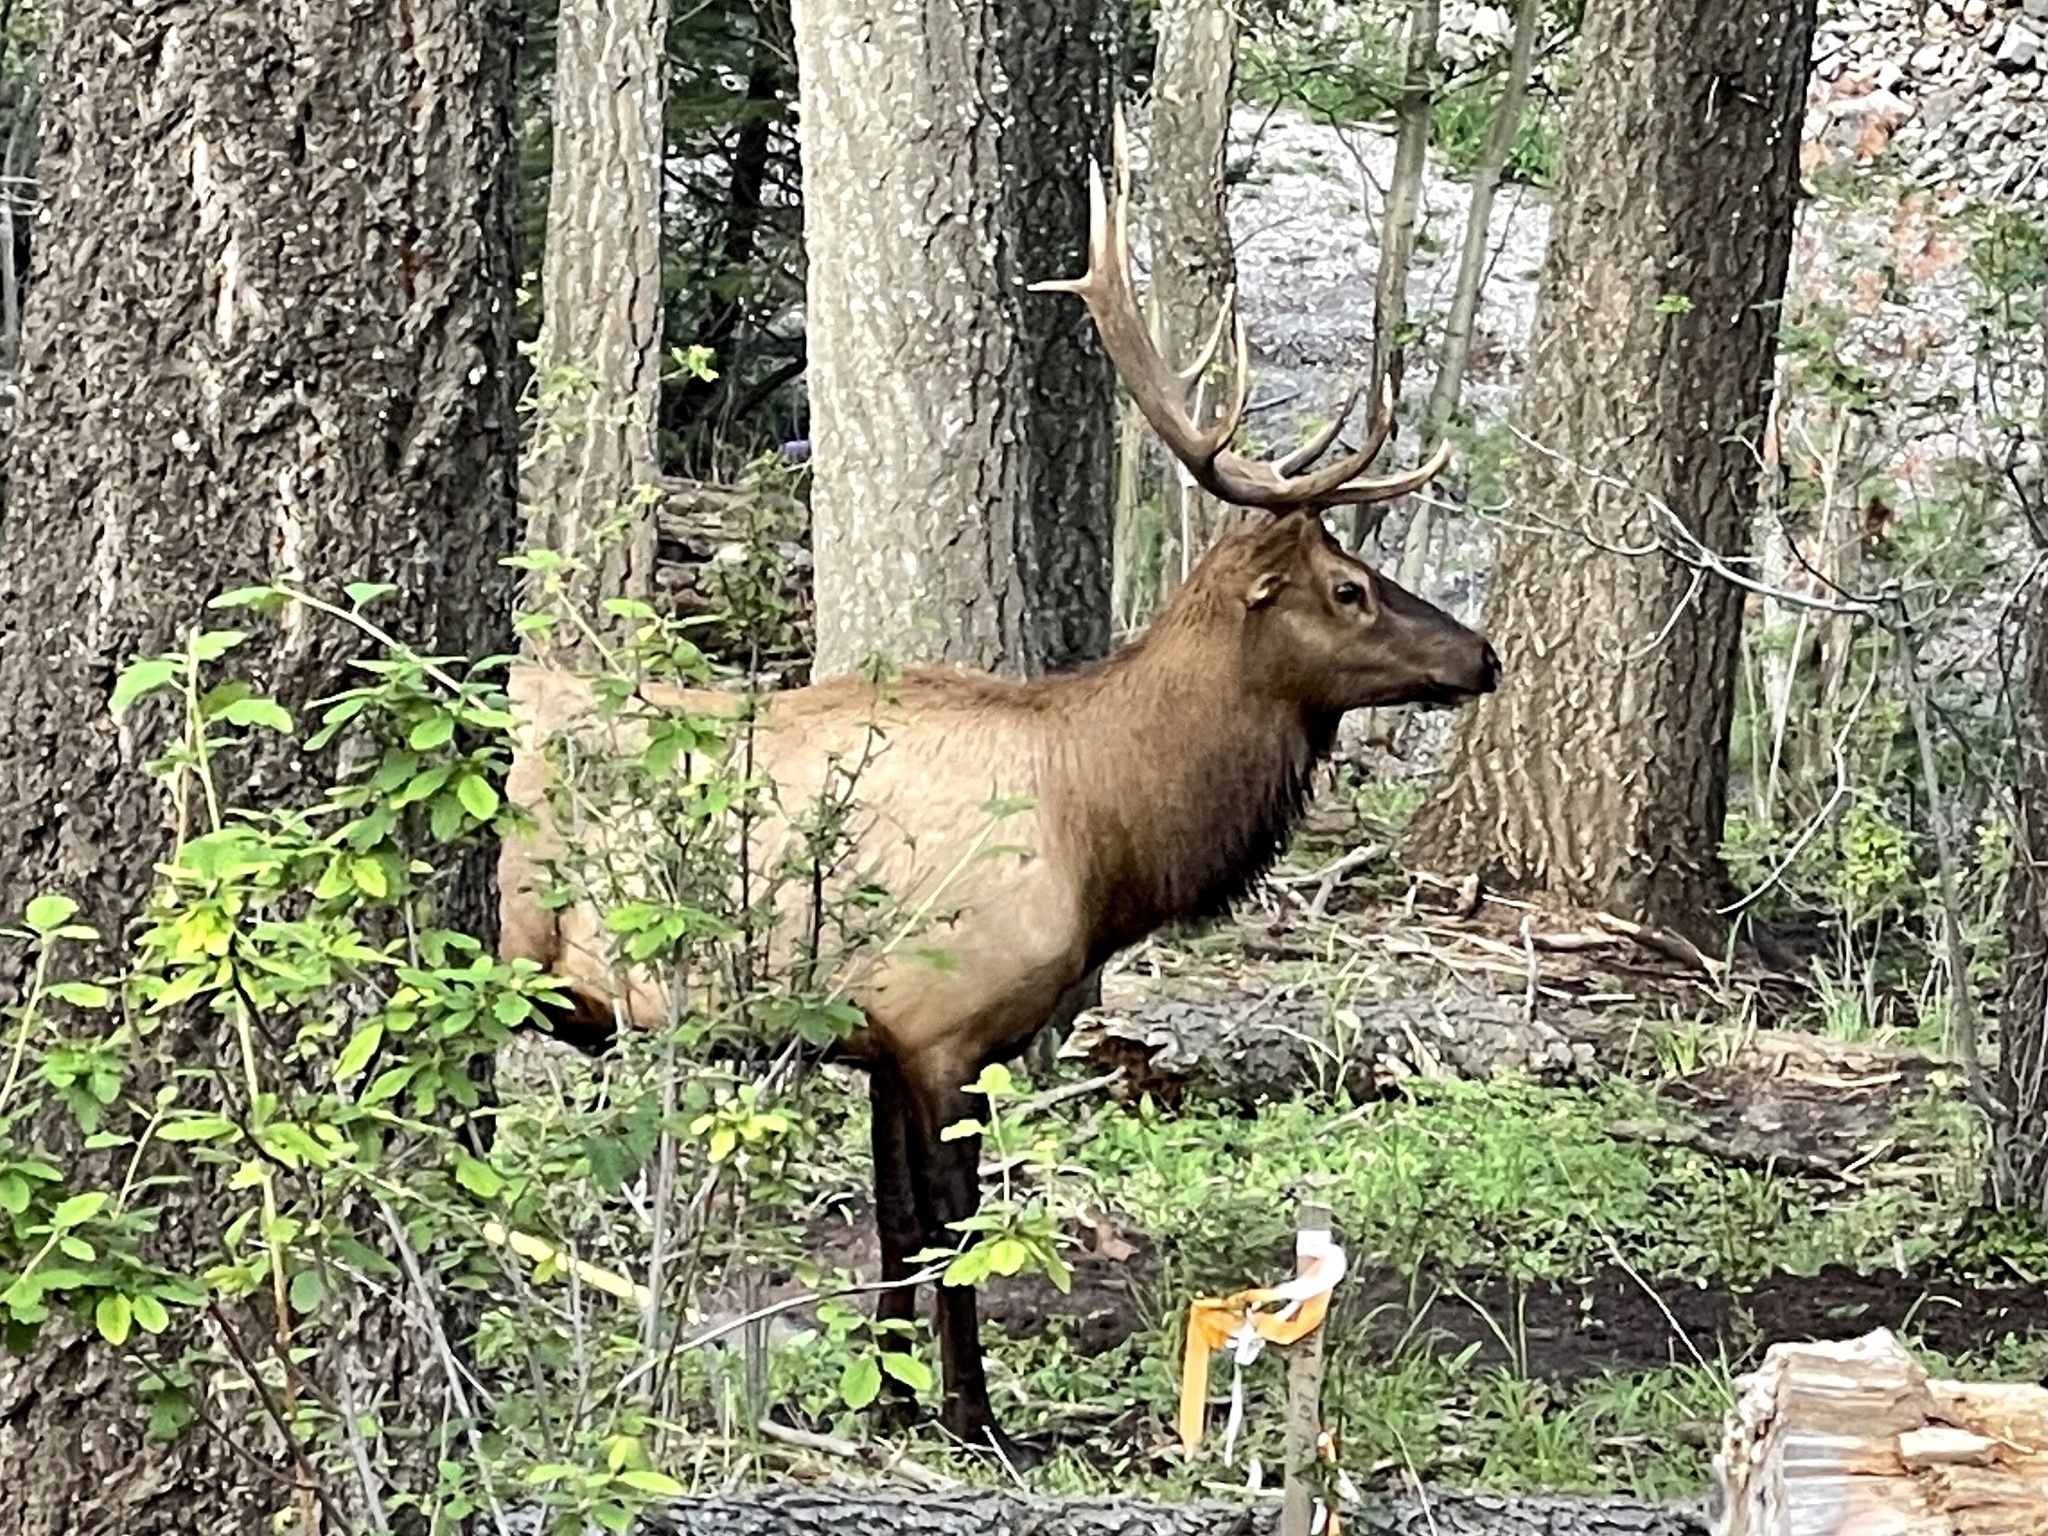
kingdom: Animalia
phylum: Chordata
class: Mammalia
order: Artiodactyla
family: Cervidae
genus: Cervus
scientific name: Cervus elaphus
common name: Red deer
